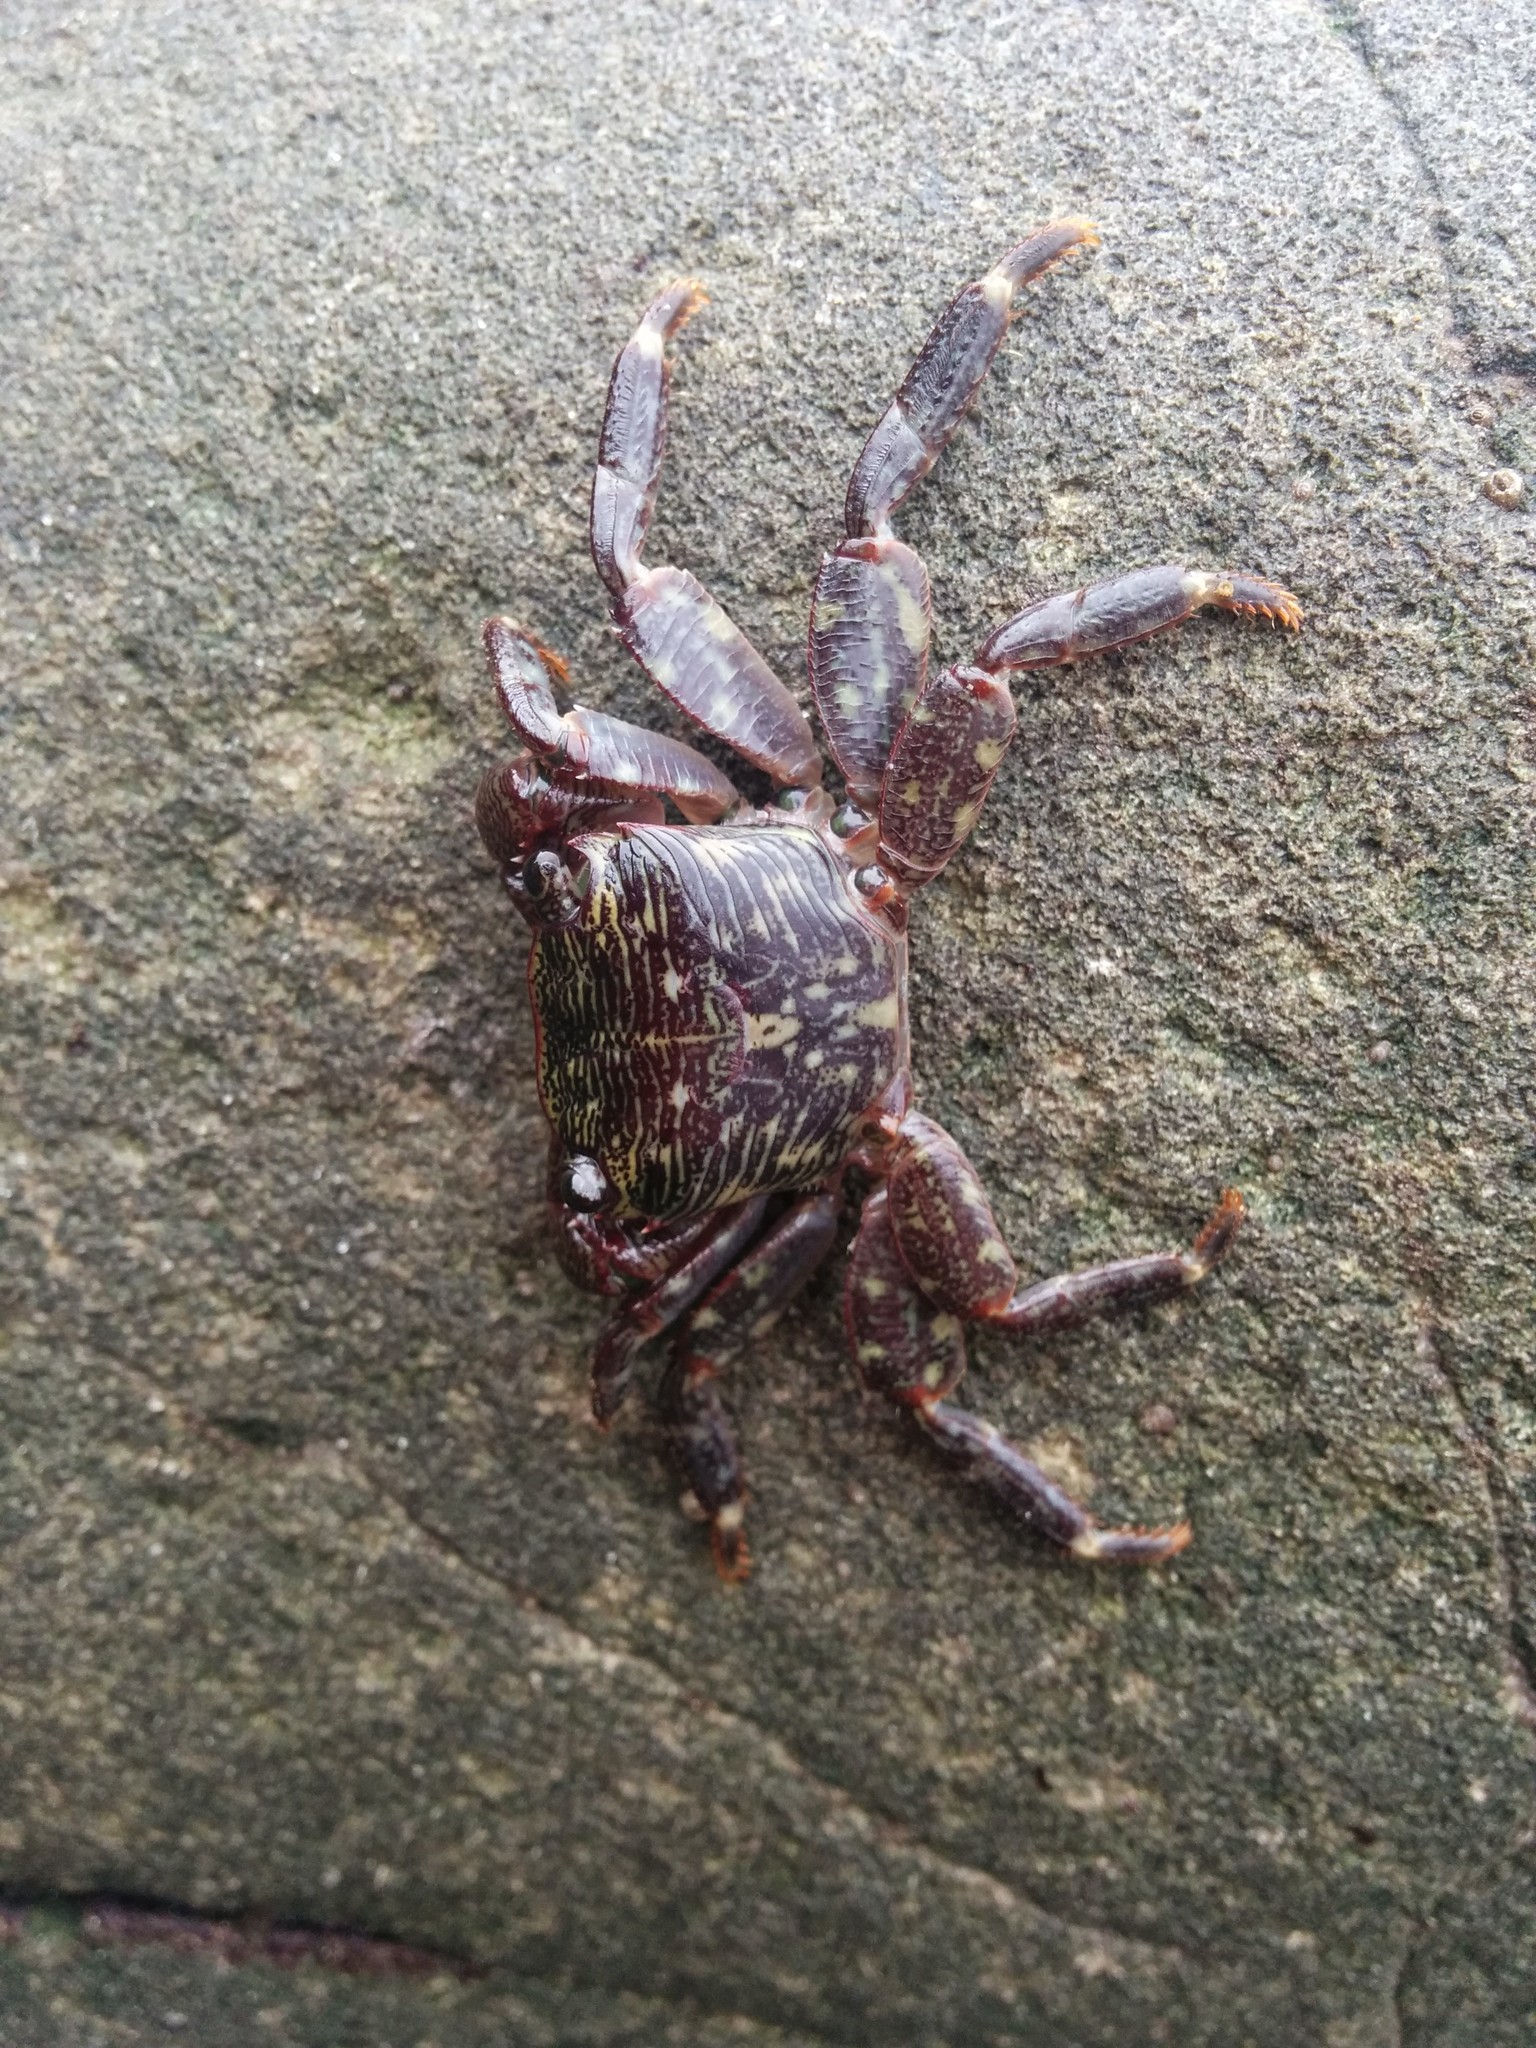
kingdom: Animalia
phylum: Arthropoda
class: Malacostraca
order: Decapoda
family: Grapsidae
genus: Pachygrapsus
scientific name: Pachygrapsus crassipes
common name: Striped shore crab
